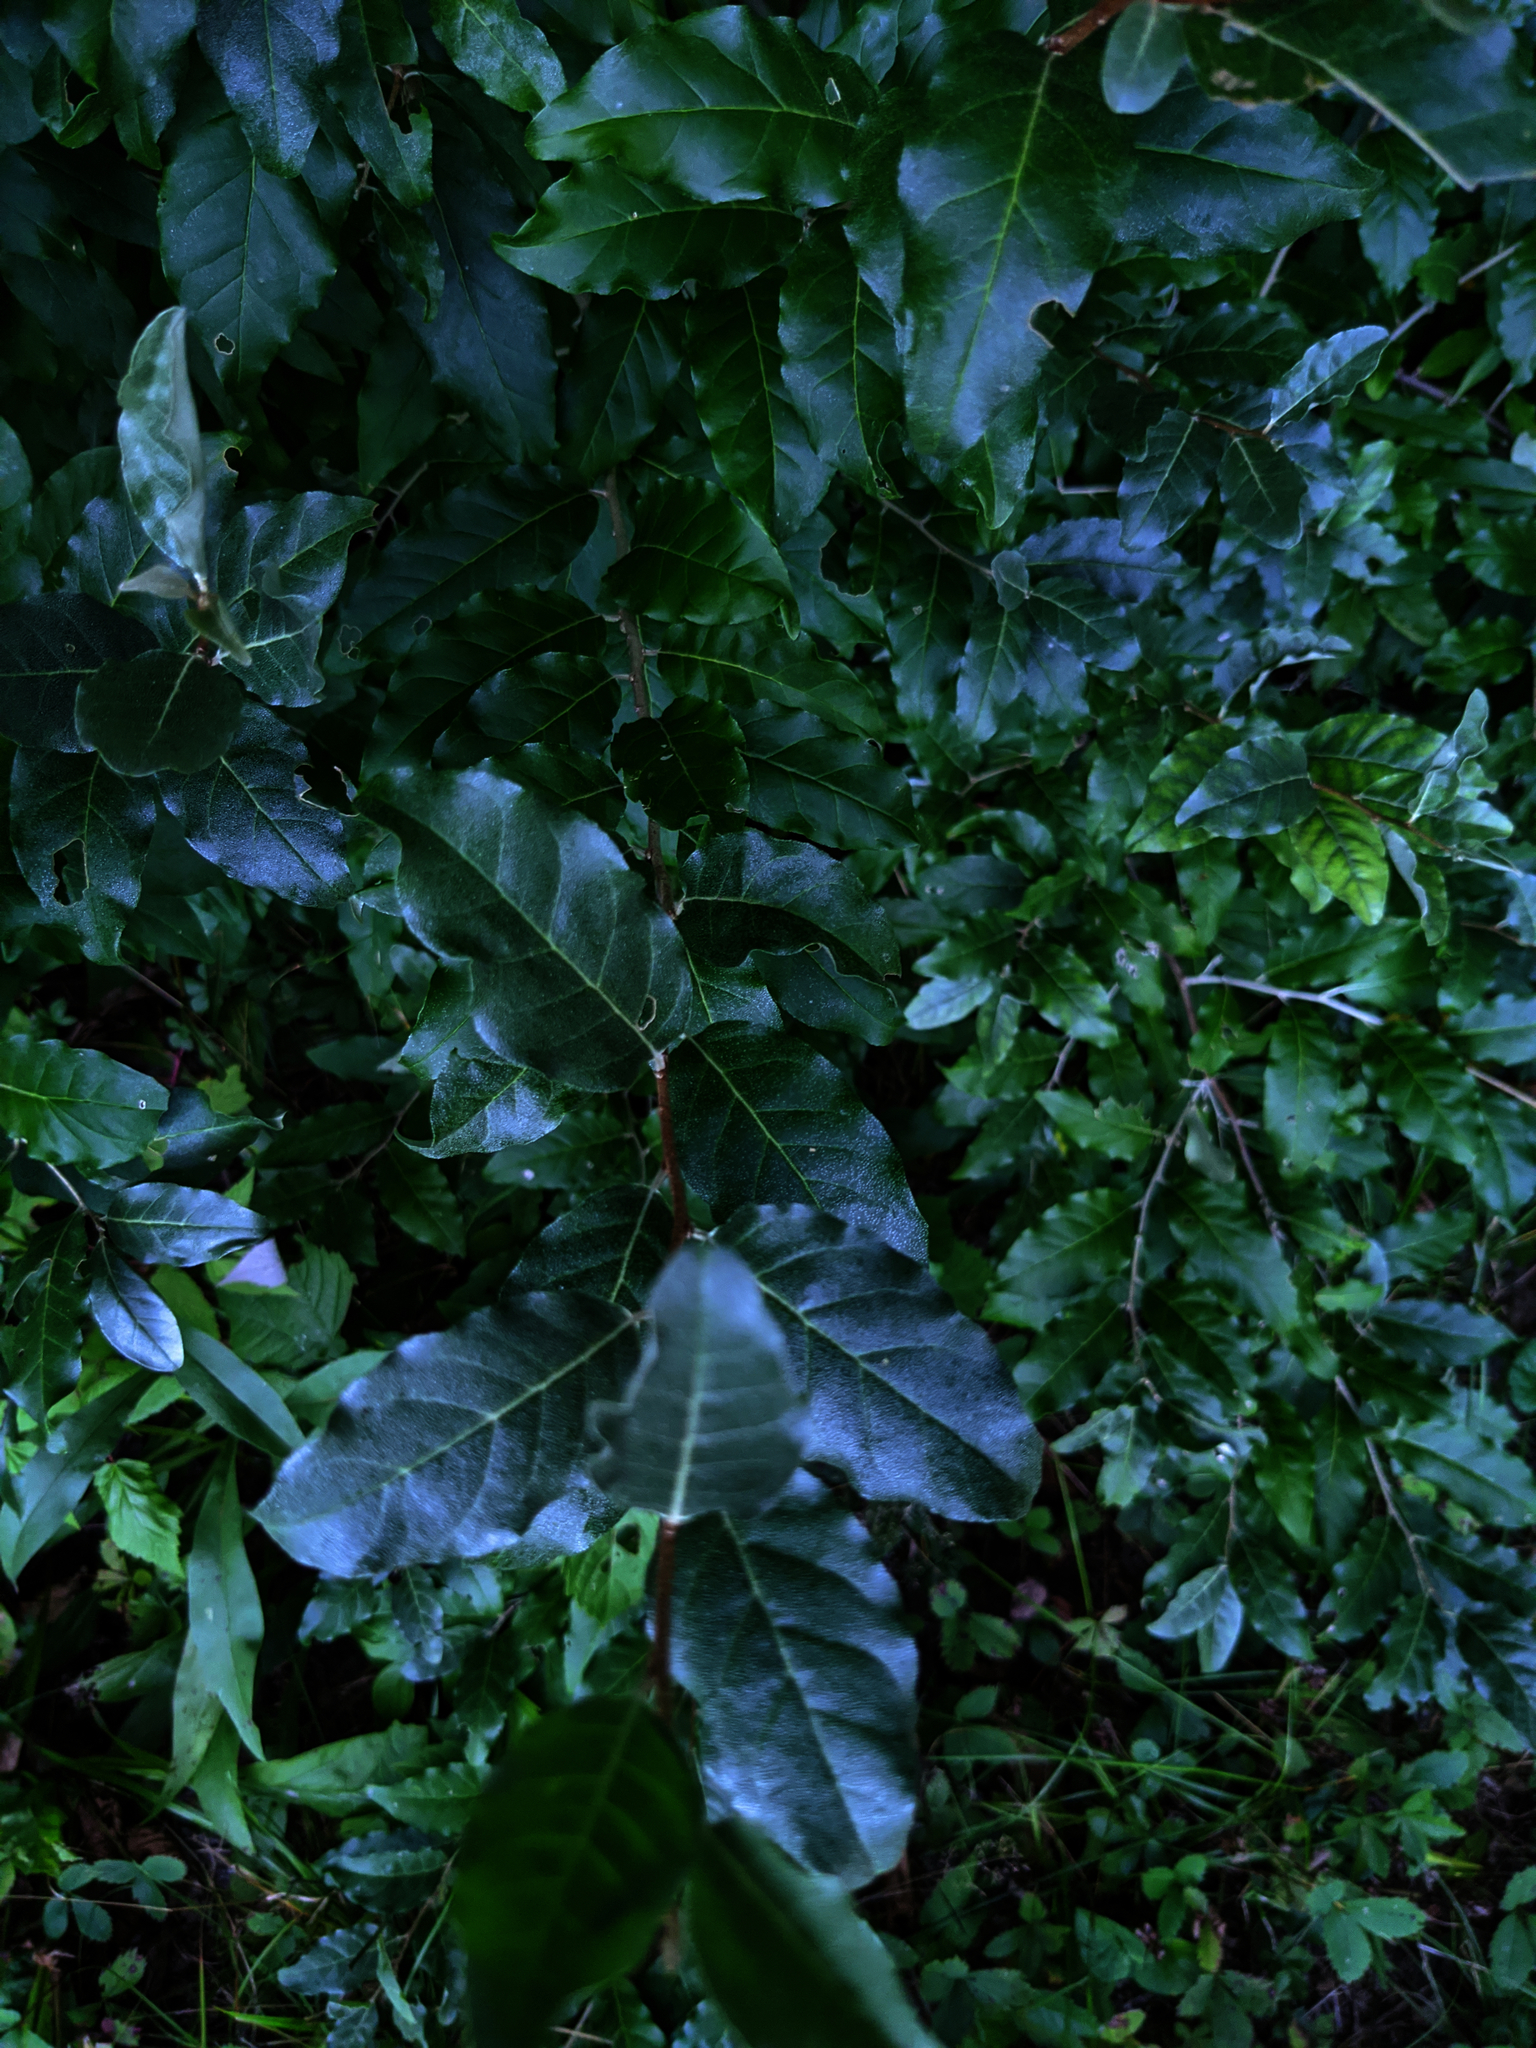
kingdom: Plantae
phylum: Tracheophyta
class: Magnoliopsida
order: Rosales
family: Elaeagnaceae
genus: Elaeagnus
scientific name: Elaeagnus umbellata
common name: Autumn olive
